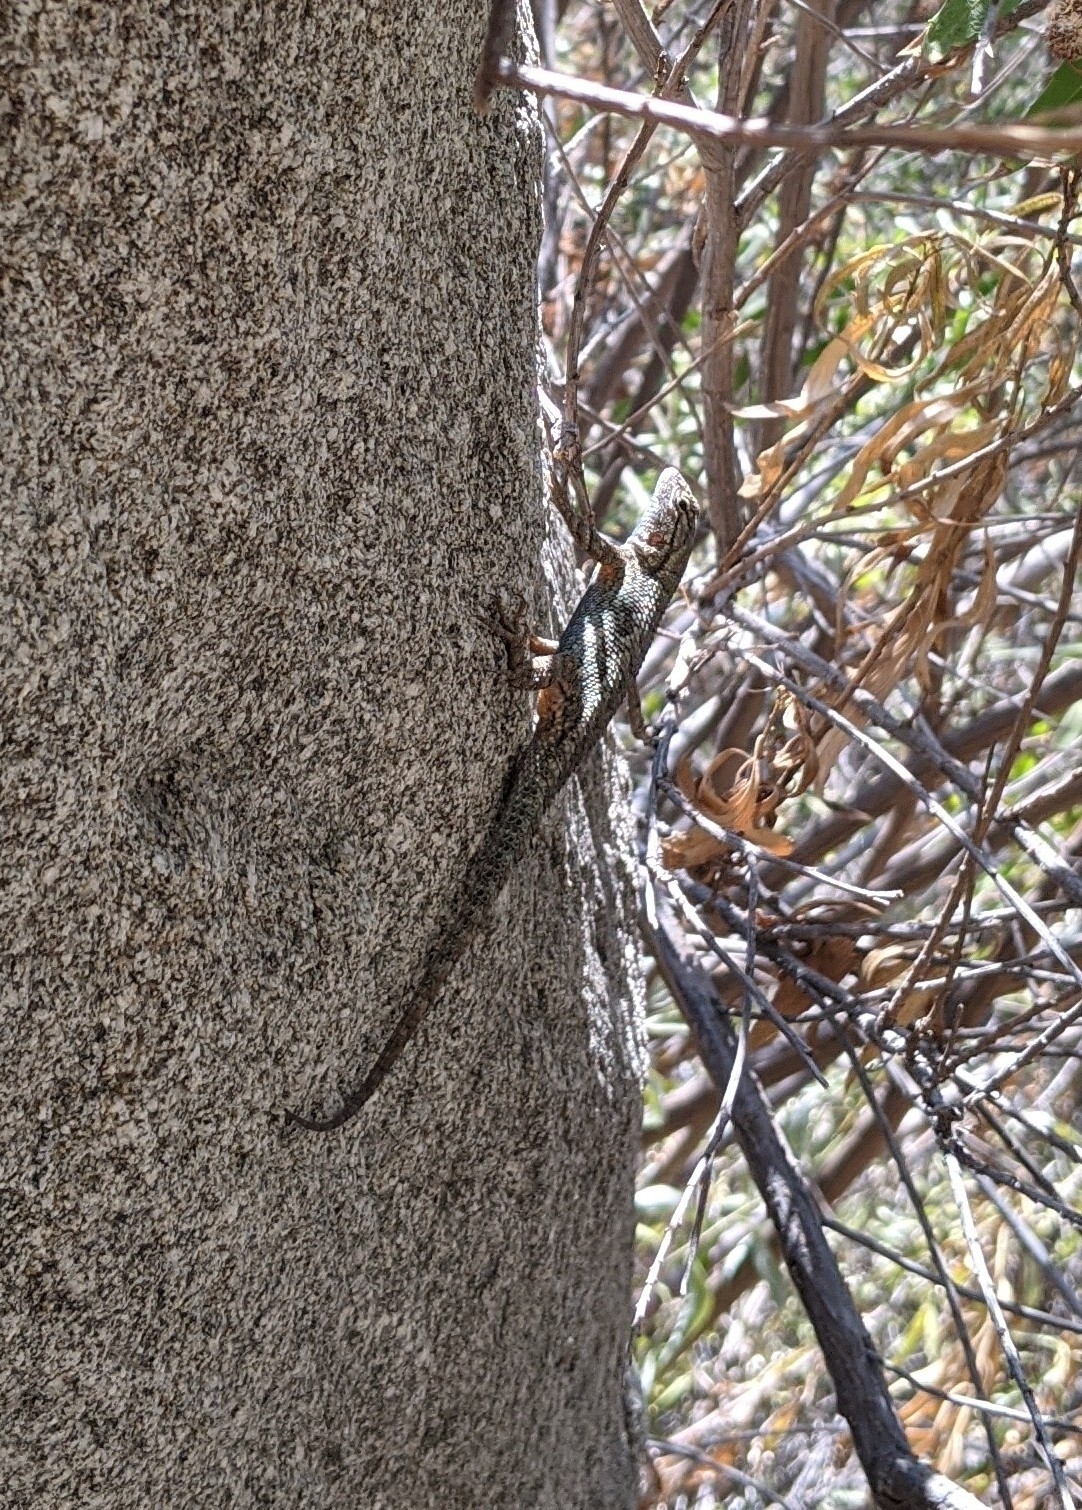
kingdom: Animalia
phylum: Chordata
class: Squamata
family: Phrynosomatidae
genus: Sceloporus
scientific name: Sceloporus occidentalis
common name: Western fence lizard
